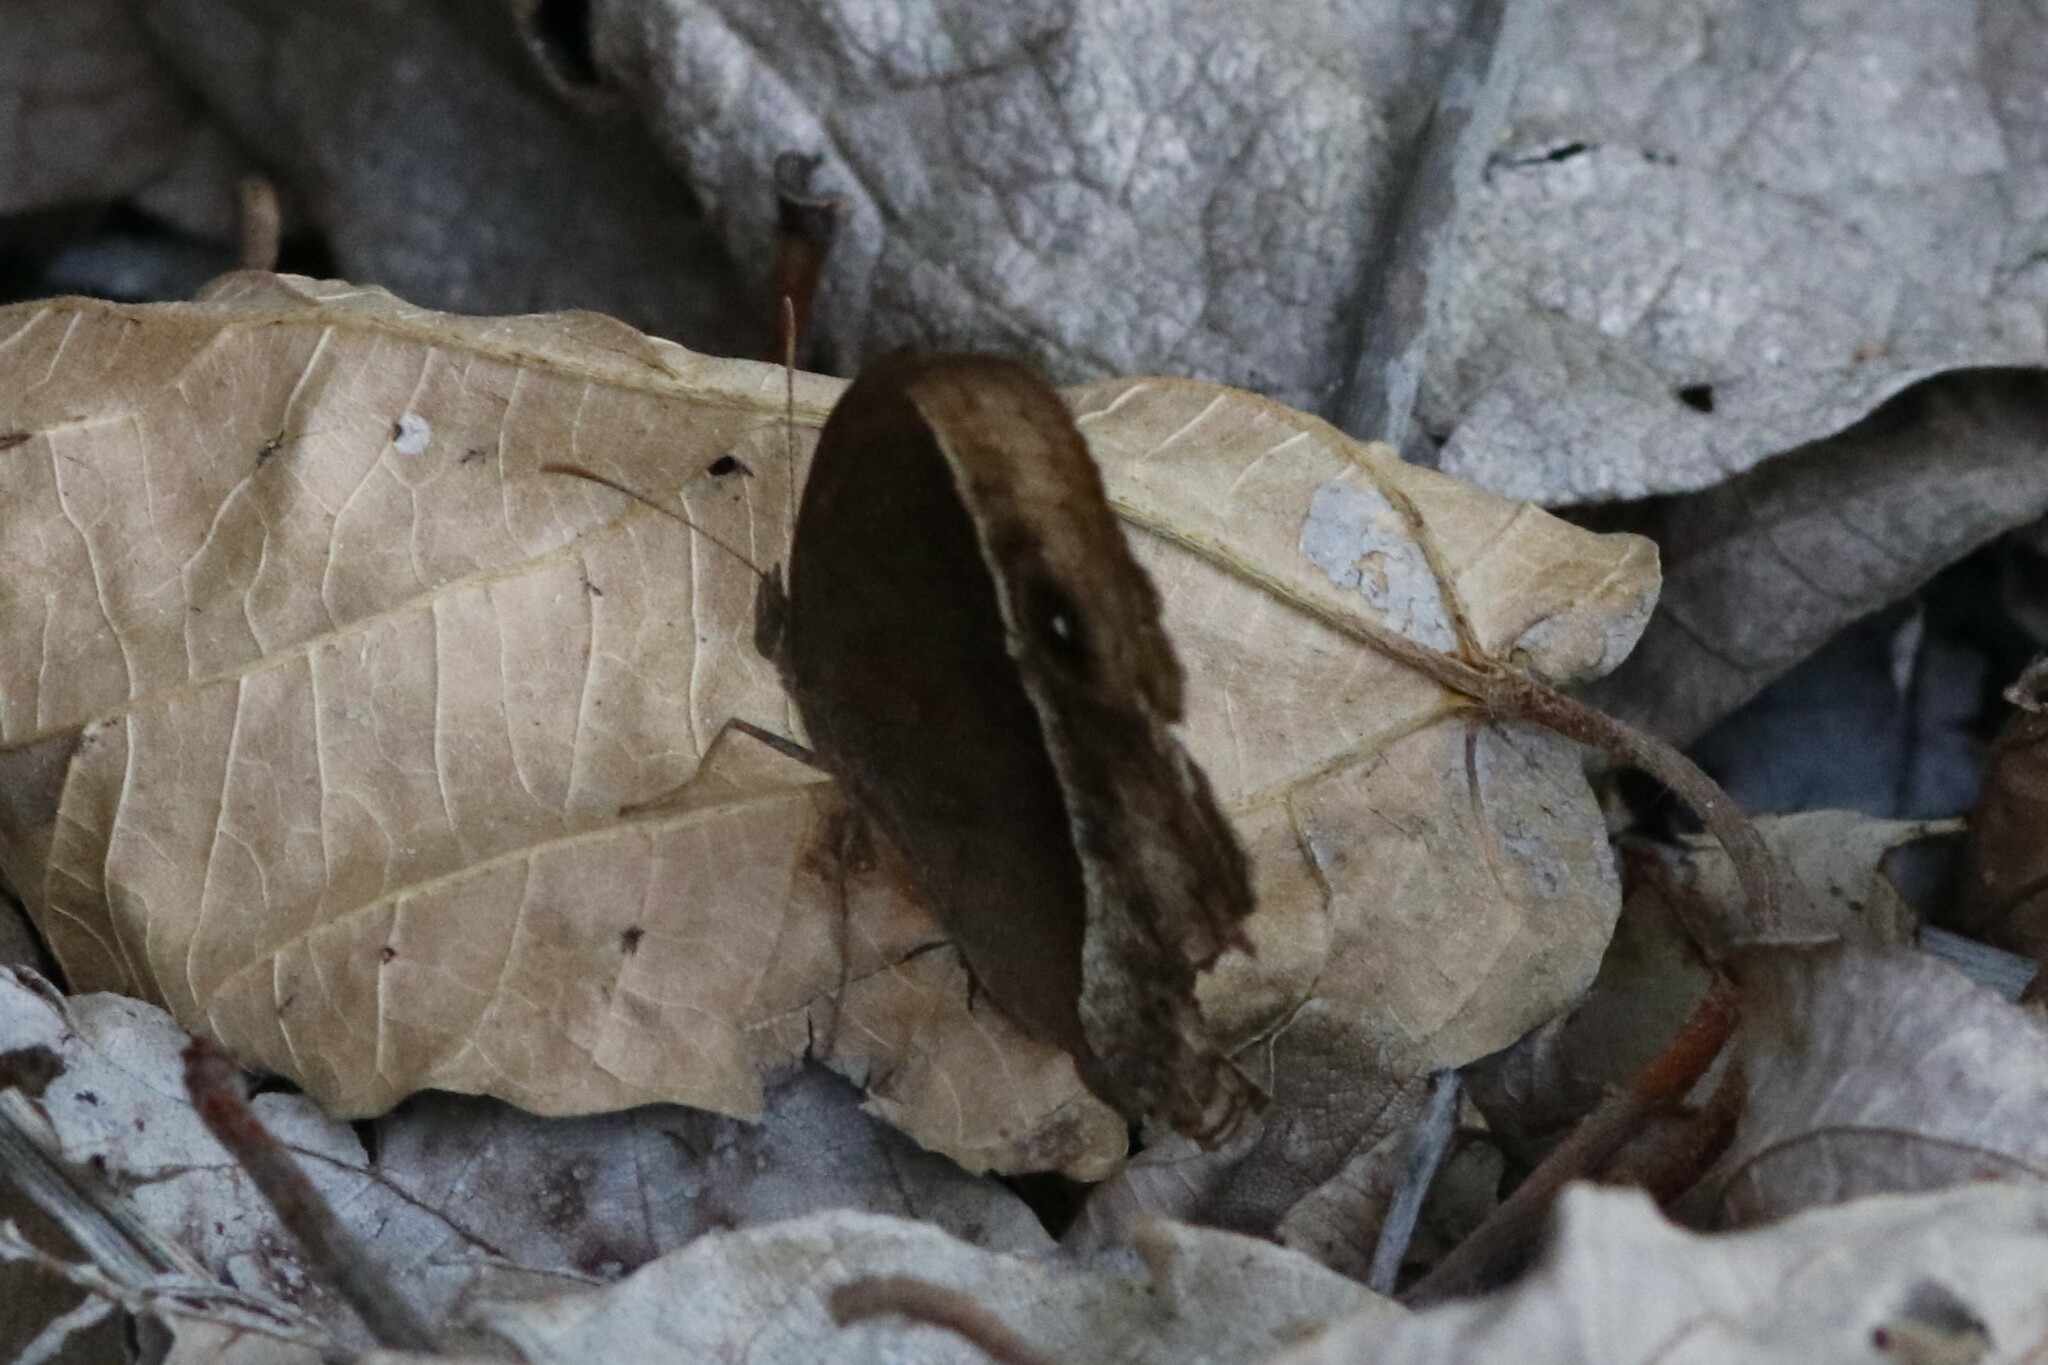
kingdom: Animalia
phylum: Arthropoda
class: Insecta
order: Lepidoptera
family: Nymphalidae
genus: Mycalesis
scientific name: Mycalesis rhacotis
